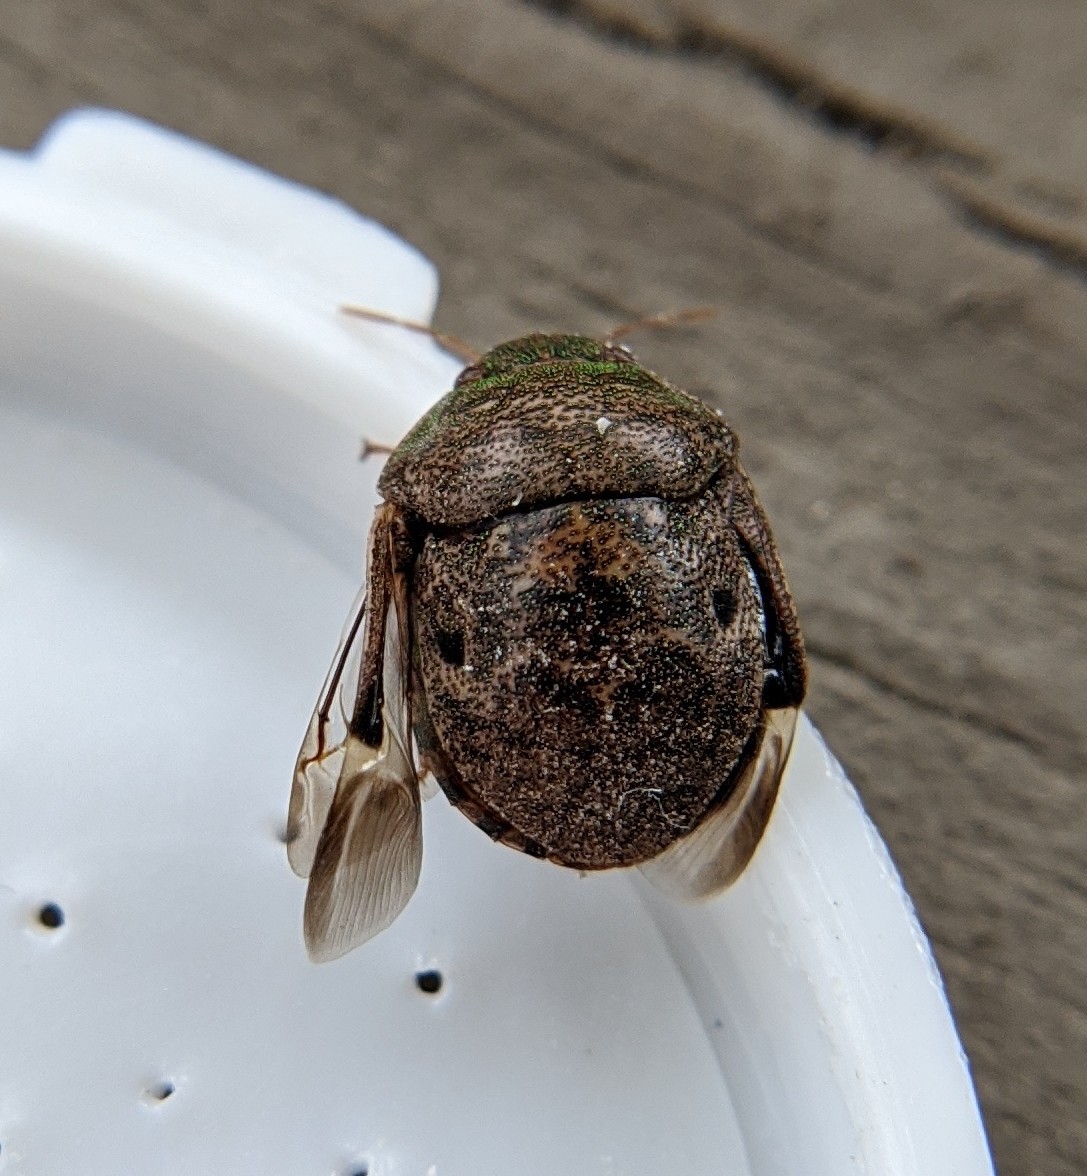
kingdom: Animalia
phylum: Arthropoda
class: Insecta
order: Hemiptera
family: Scutelleridae
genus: Diolcus
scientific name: Diolcus chrysorrhoeus
